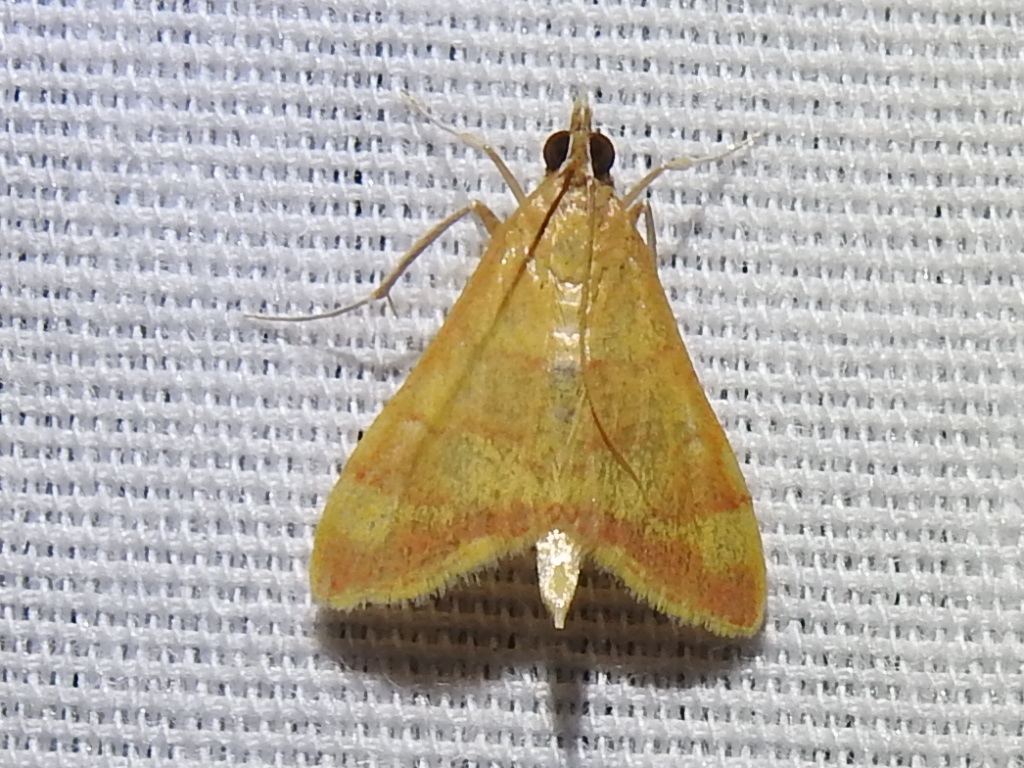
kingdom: Animalia
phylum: Arthropoda
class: Insecta
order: Lepidoptera
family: Crambidae
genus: Pyrausta
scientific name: Pyrausta pseudonythesalis
